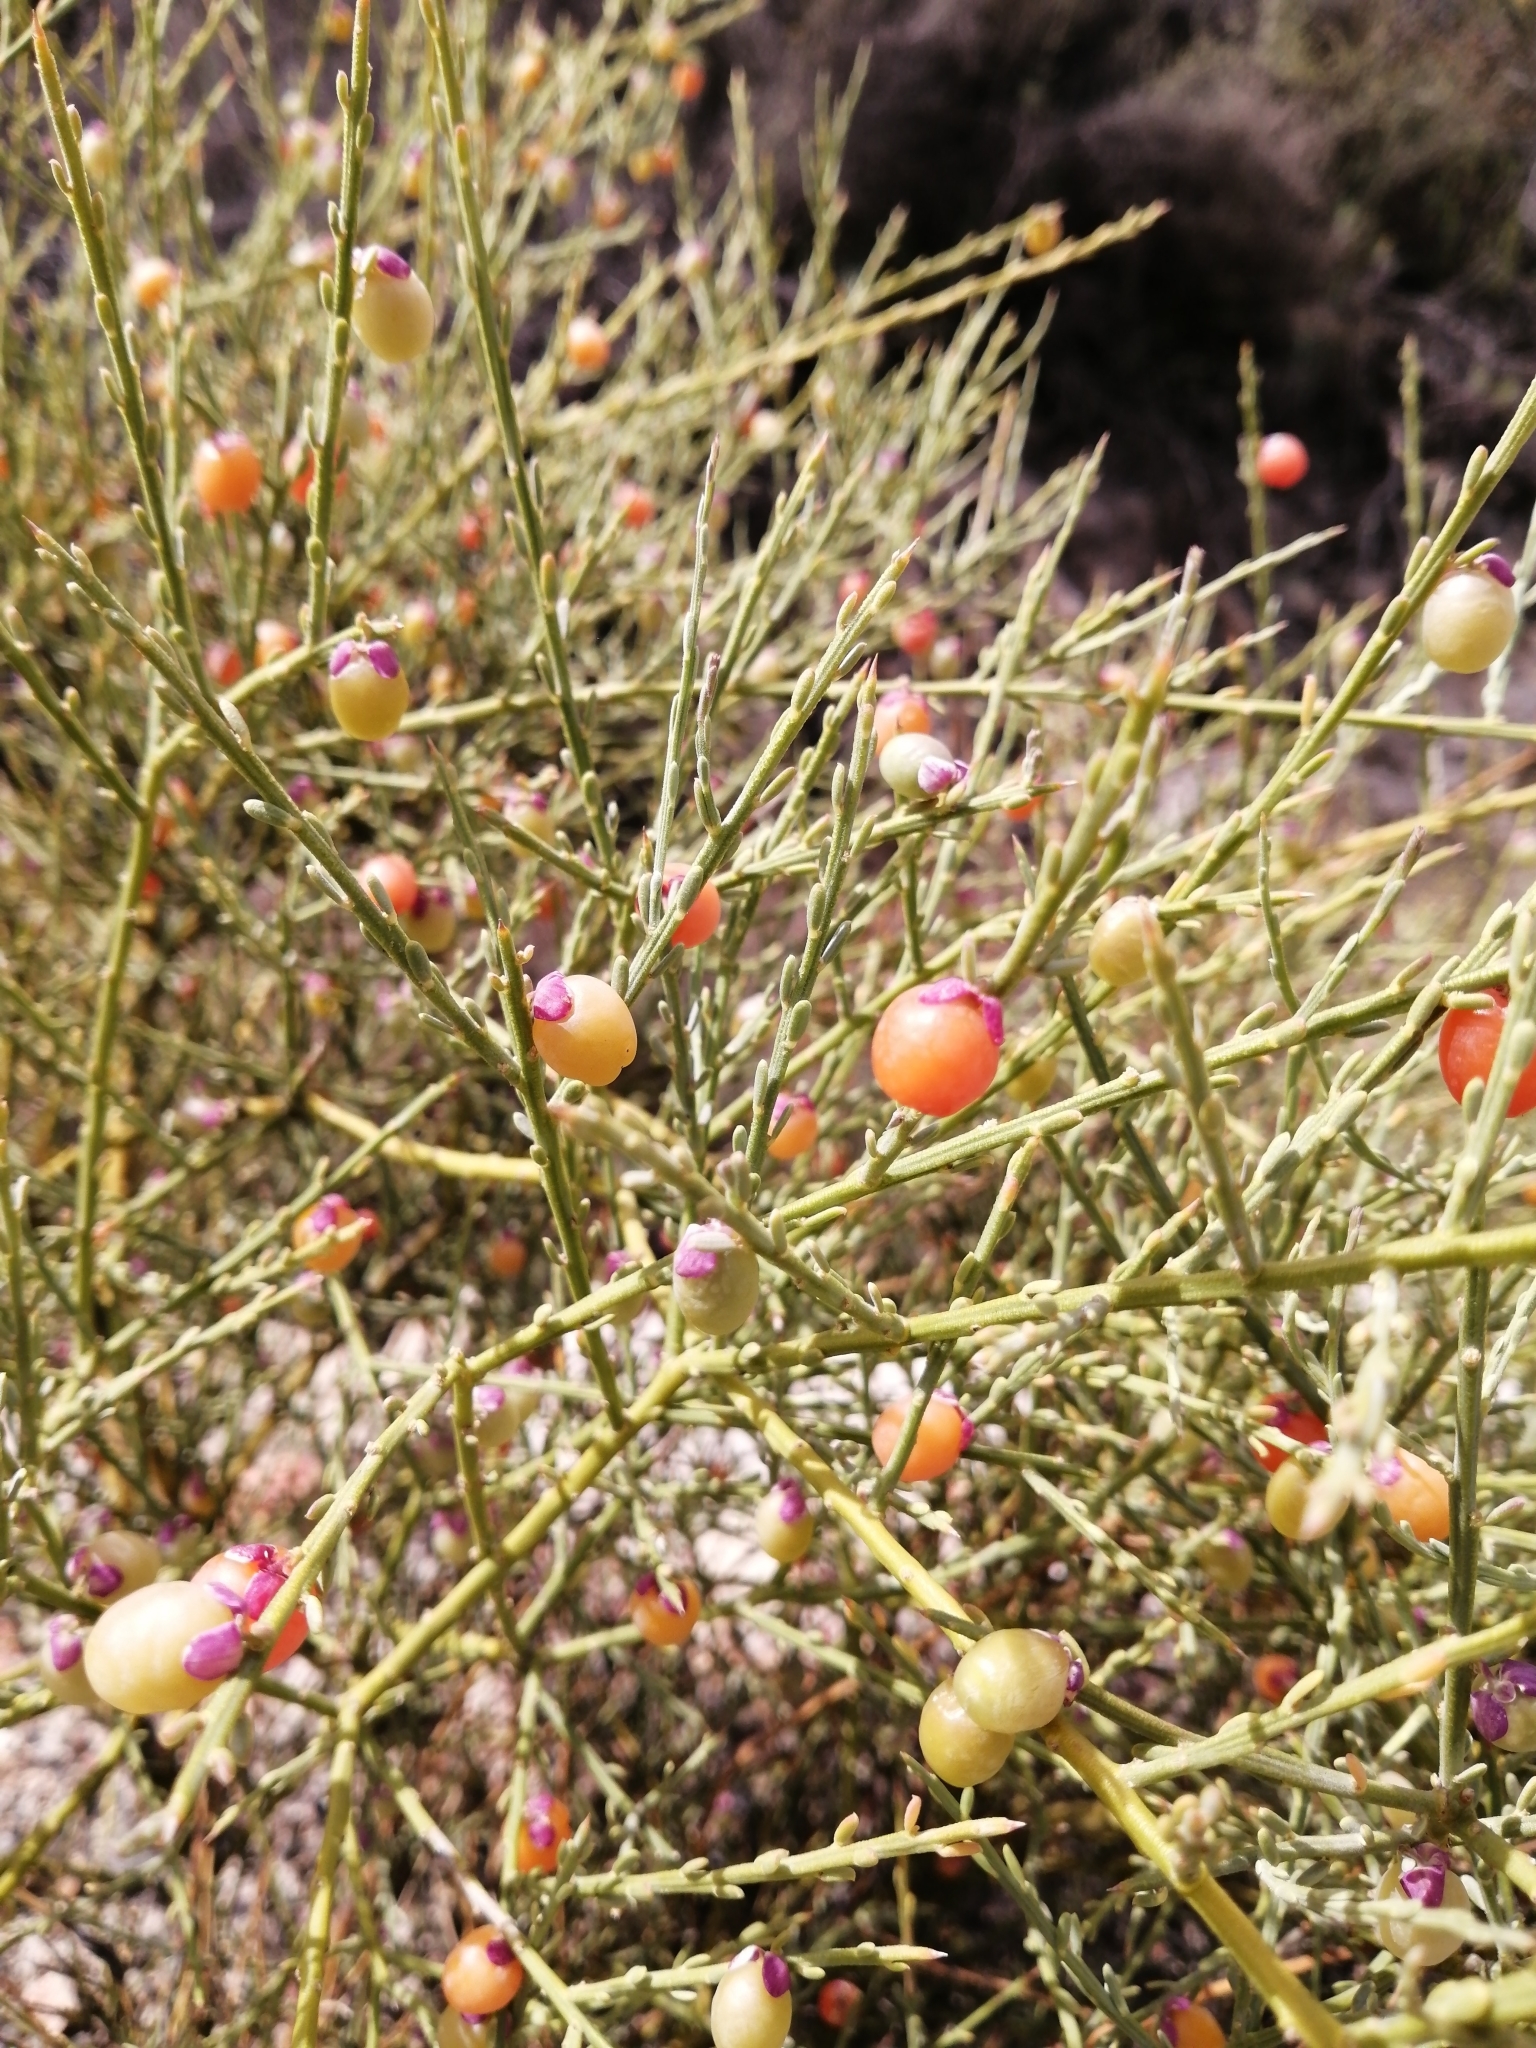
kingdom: Plantae
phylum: Tracheophyta
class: Magnoliopsida
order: Fabales
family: Polygalaceae
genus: Muraltia
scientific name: Muraltia spinosa
